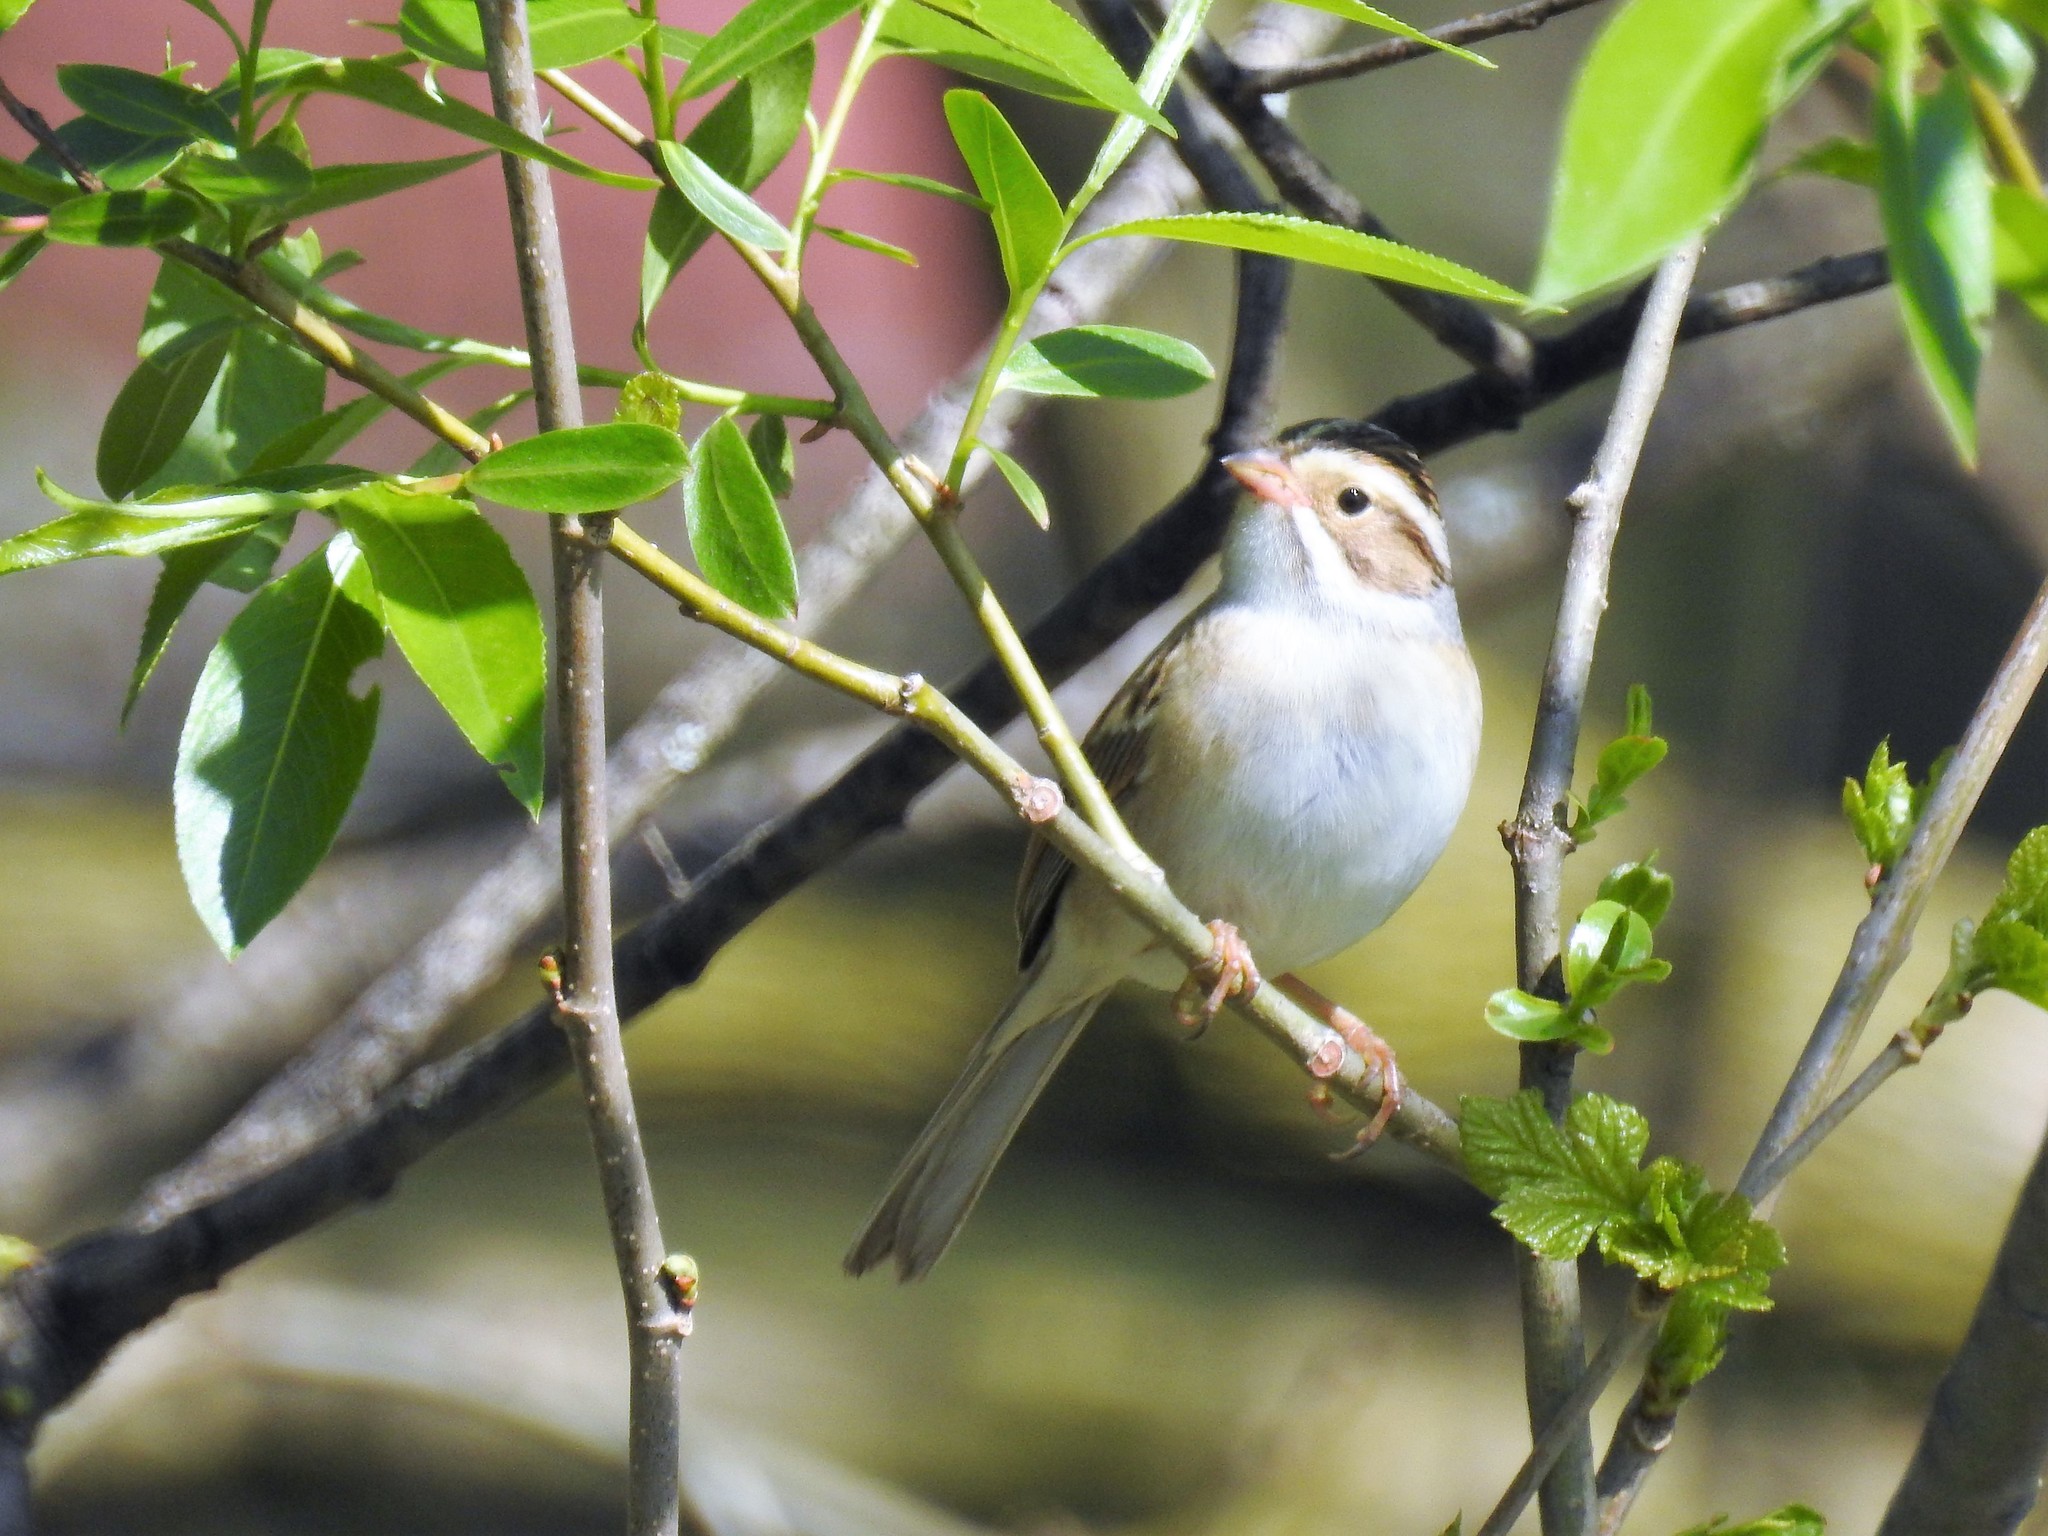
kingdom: Animalia
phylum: Chordata
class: Aves
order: Passeriformes
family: Passerellidae
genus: Spizella
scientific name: Spizella pallida
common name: Clay-colored sparrow
